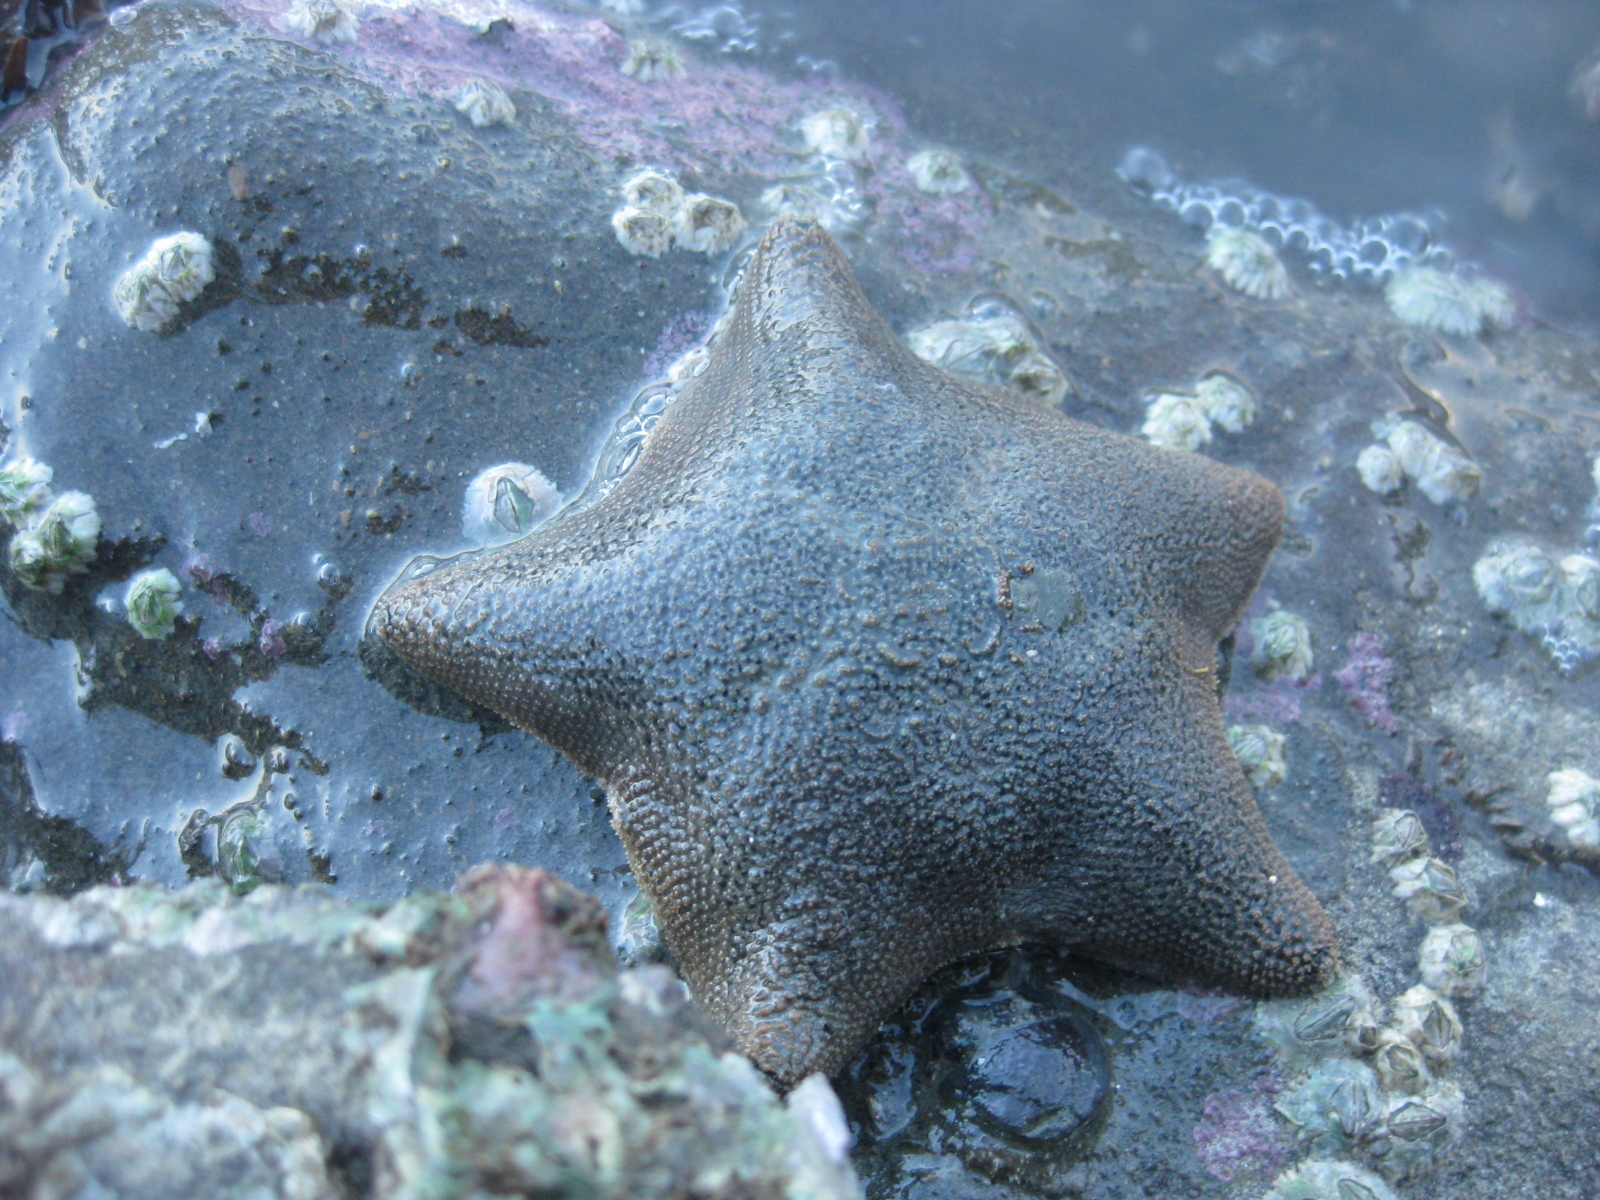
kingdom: Animalia
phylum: Echinodermata
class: Asteroidea
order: Valvatida
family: Asterinidae
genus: Patiriella
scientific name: Patiriella regularis
